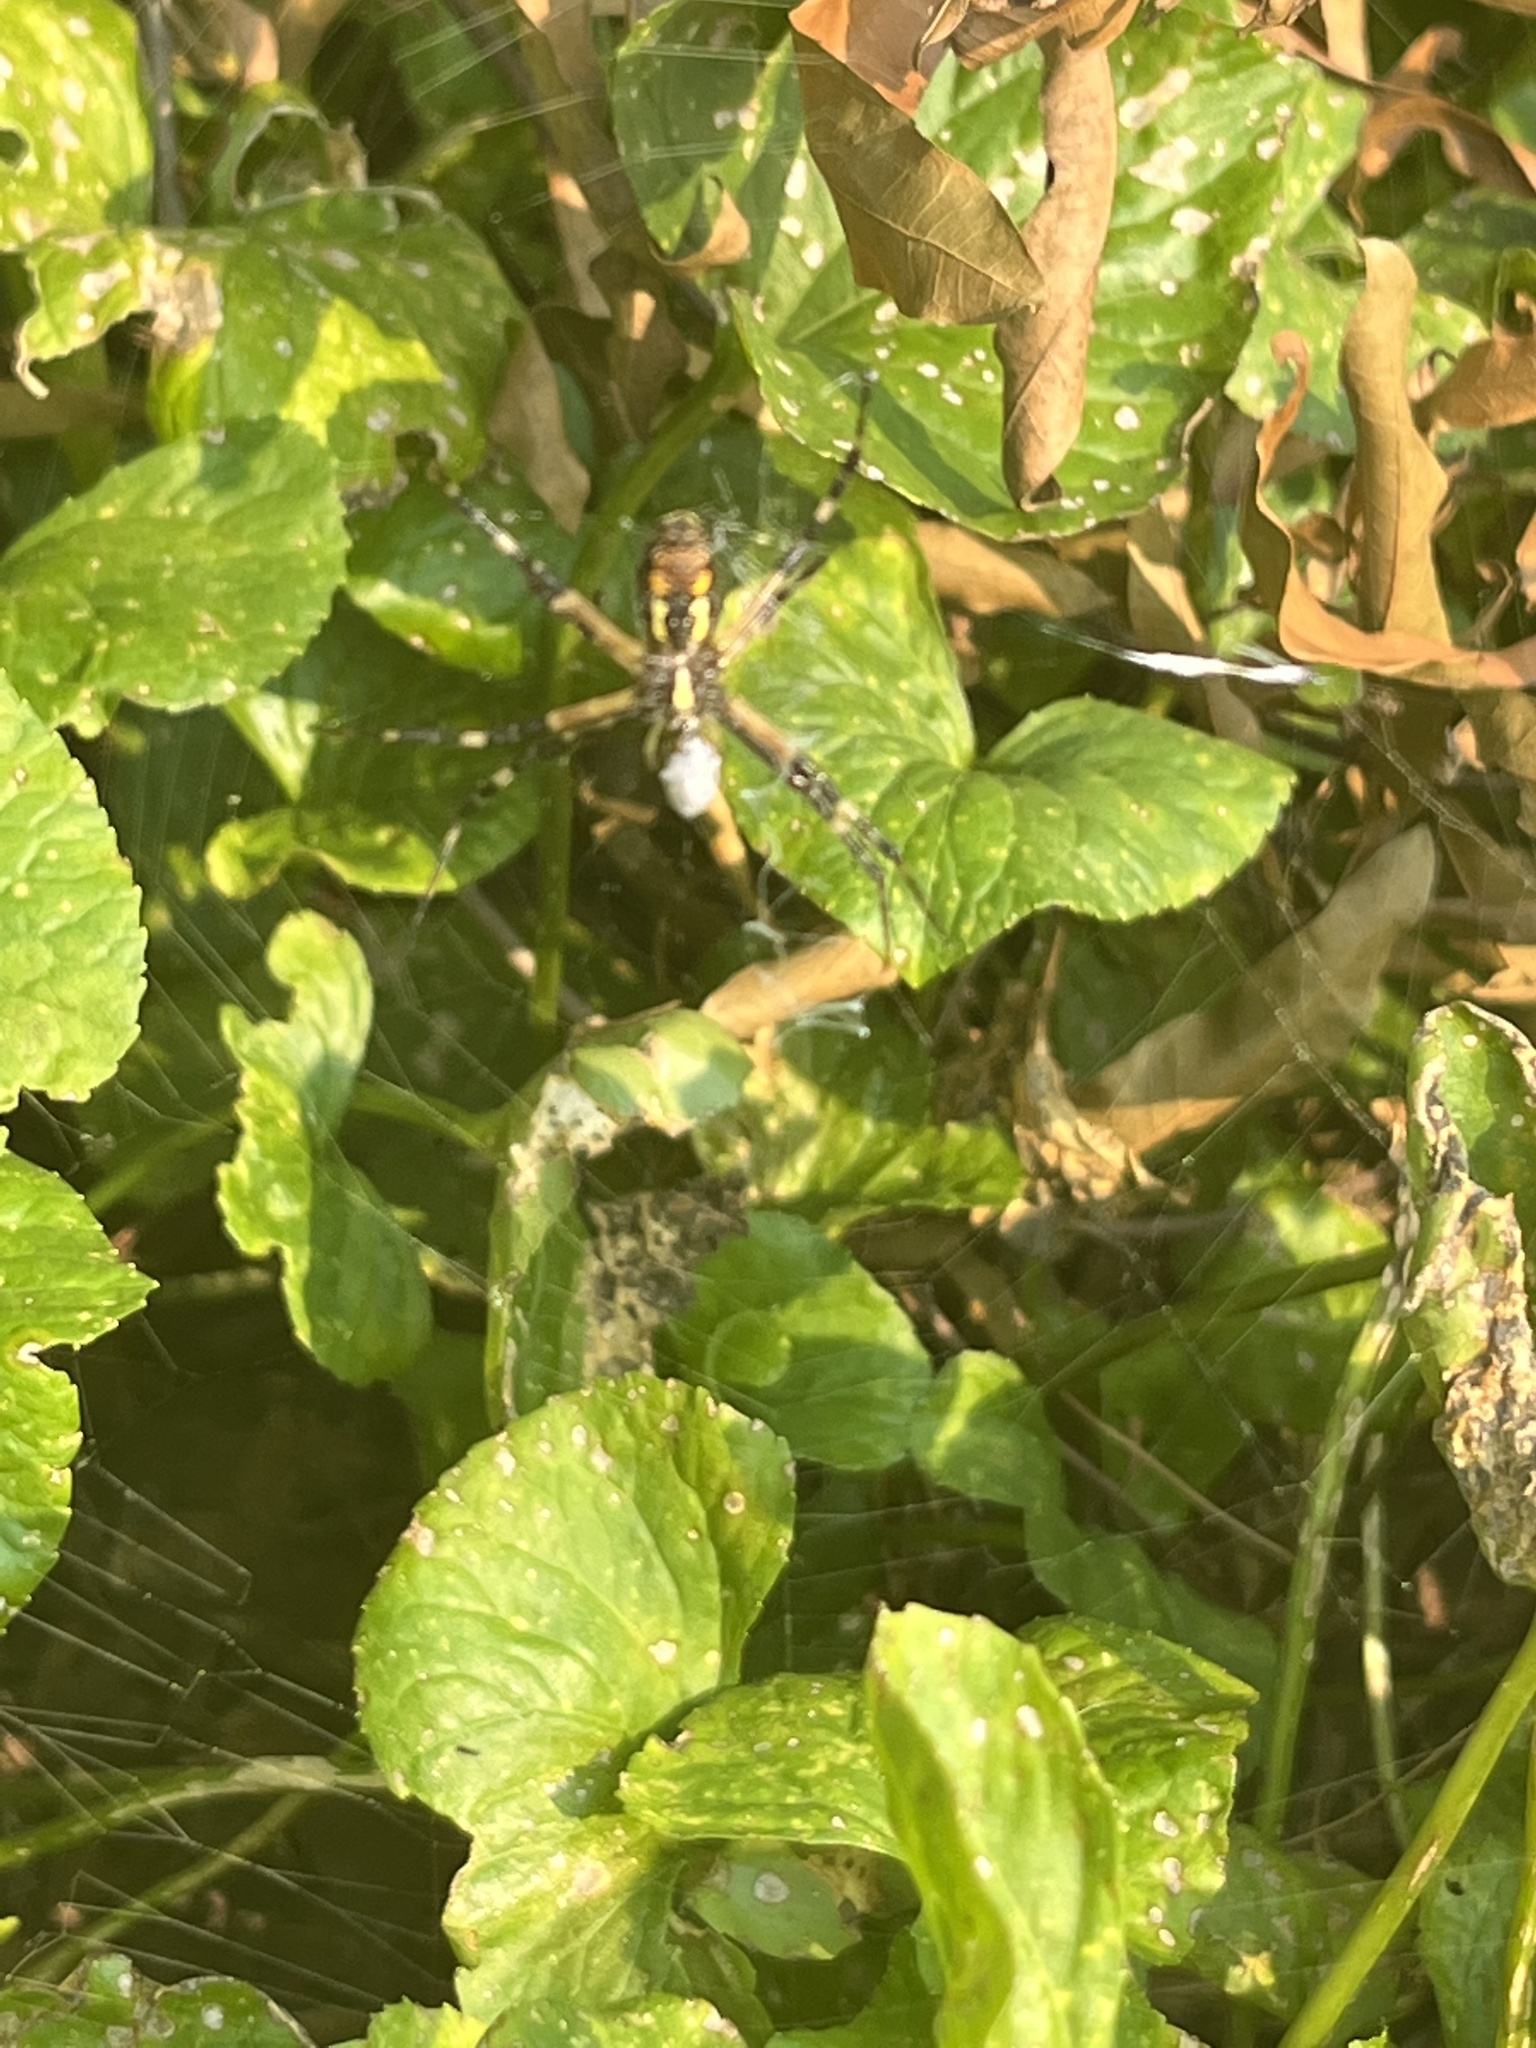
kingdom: Animalia
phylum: Arthropoda
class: Arachnida
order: Araneae
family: Araneidae
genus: Argiope
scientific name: Argiope aurantia
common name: Orb weavers
